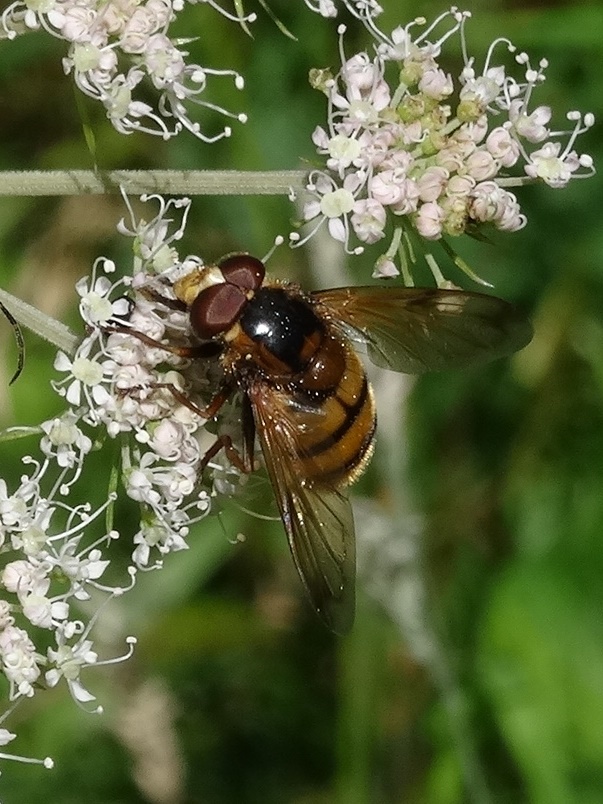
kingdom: Animalia
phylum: Arthropoda
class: Insecta
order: Diptera
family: Syrphidae
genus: Volucella
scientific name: Volucella inanis
